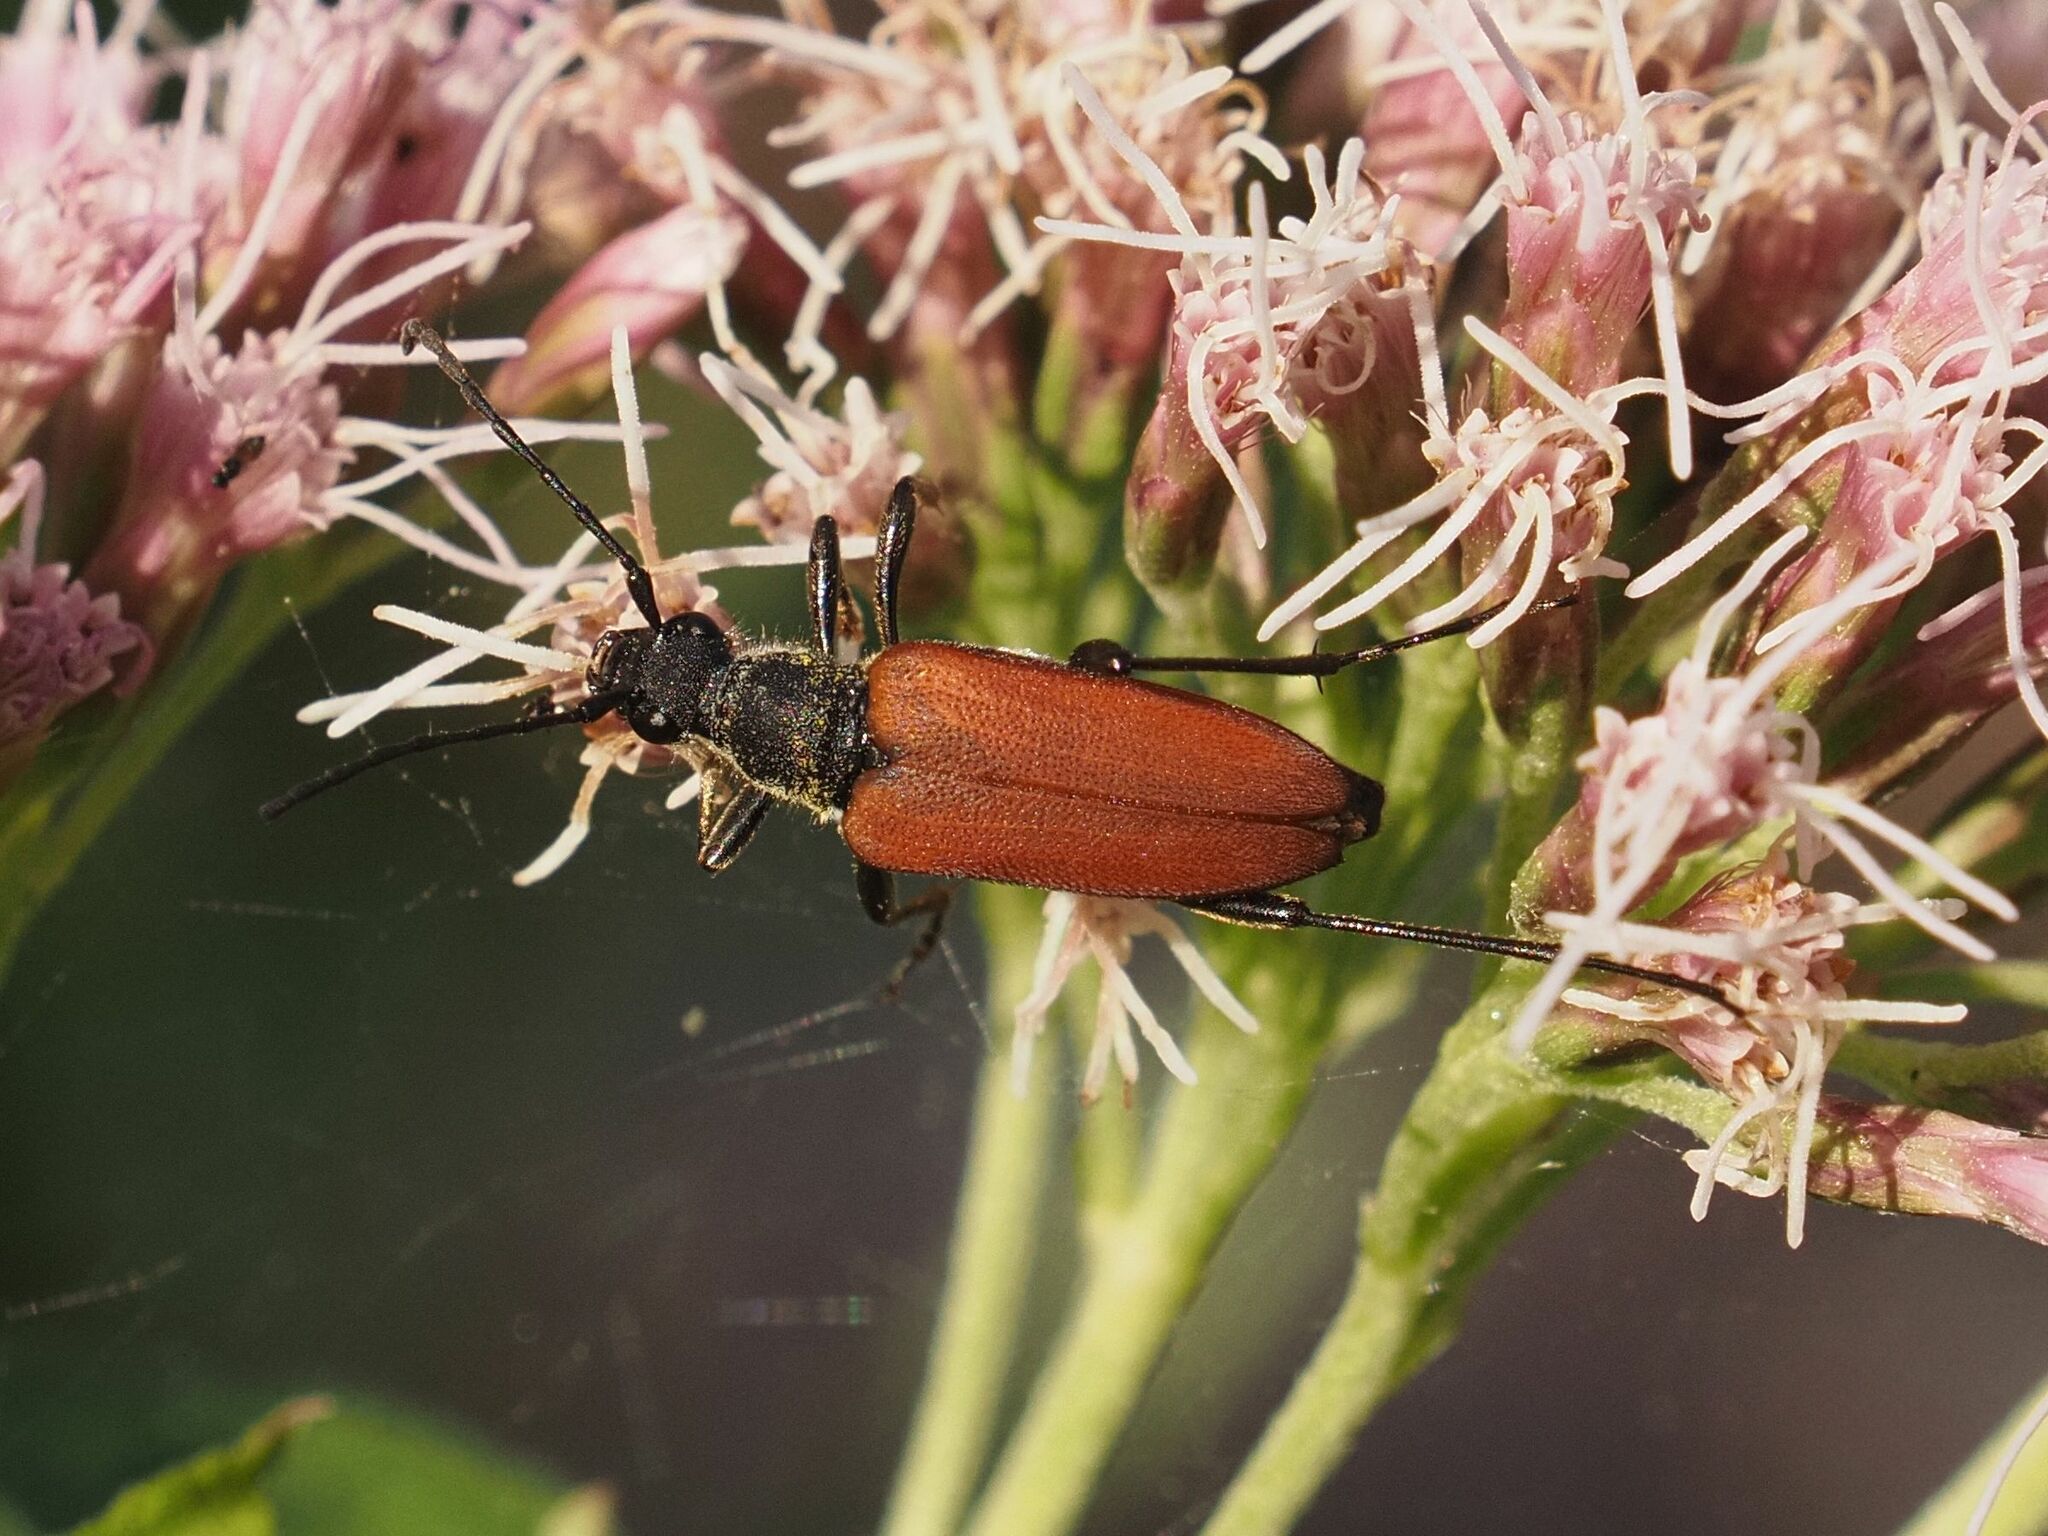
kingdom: Animalia
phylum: Arthropoda
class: Insecta
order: Coleoptera
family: Cerambycidae
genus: Anastrangalia
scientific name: Anastrangalia sanguinolenta
